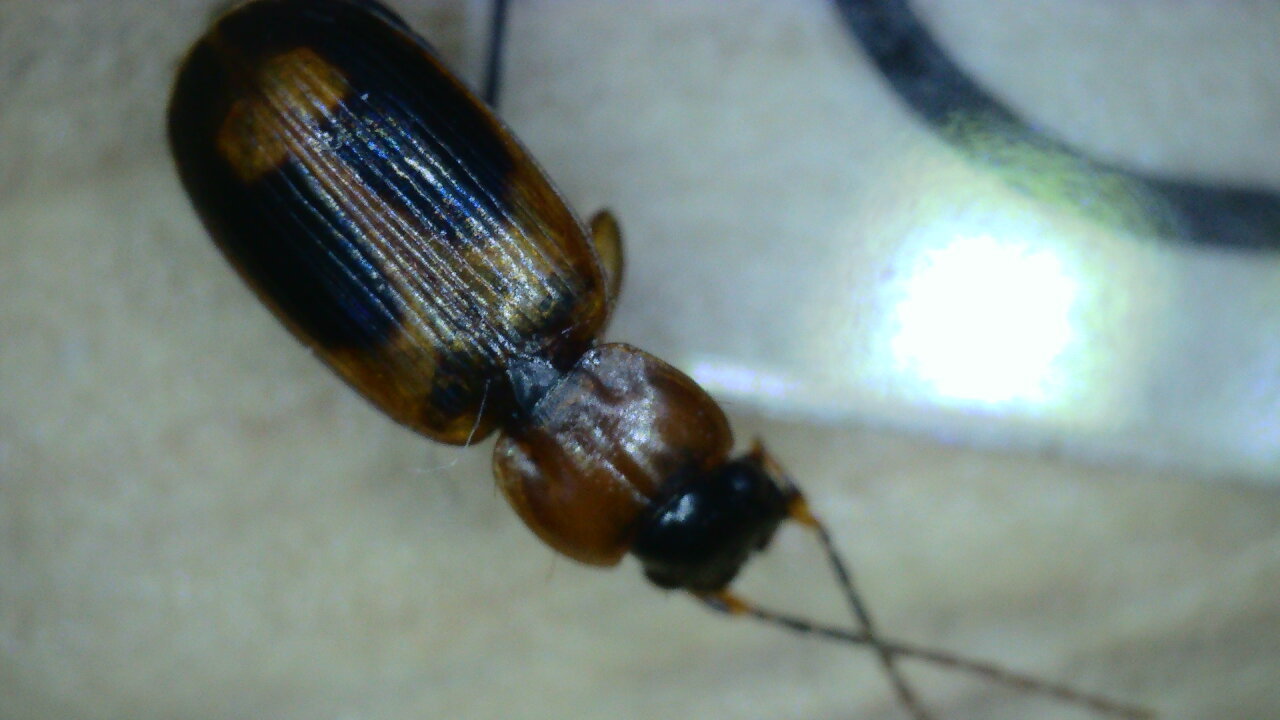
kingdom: Animalia
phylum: Arthropoda
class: Insecta
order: Coleoptera
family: Carabidae
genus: Badister
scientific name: Badister bullatus
